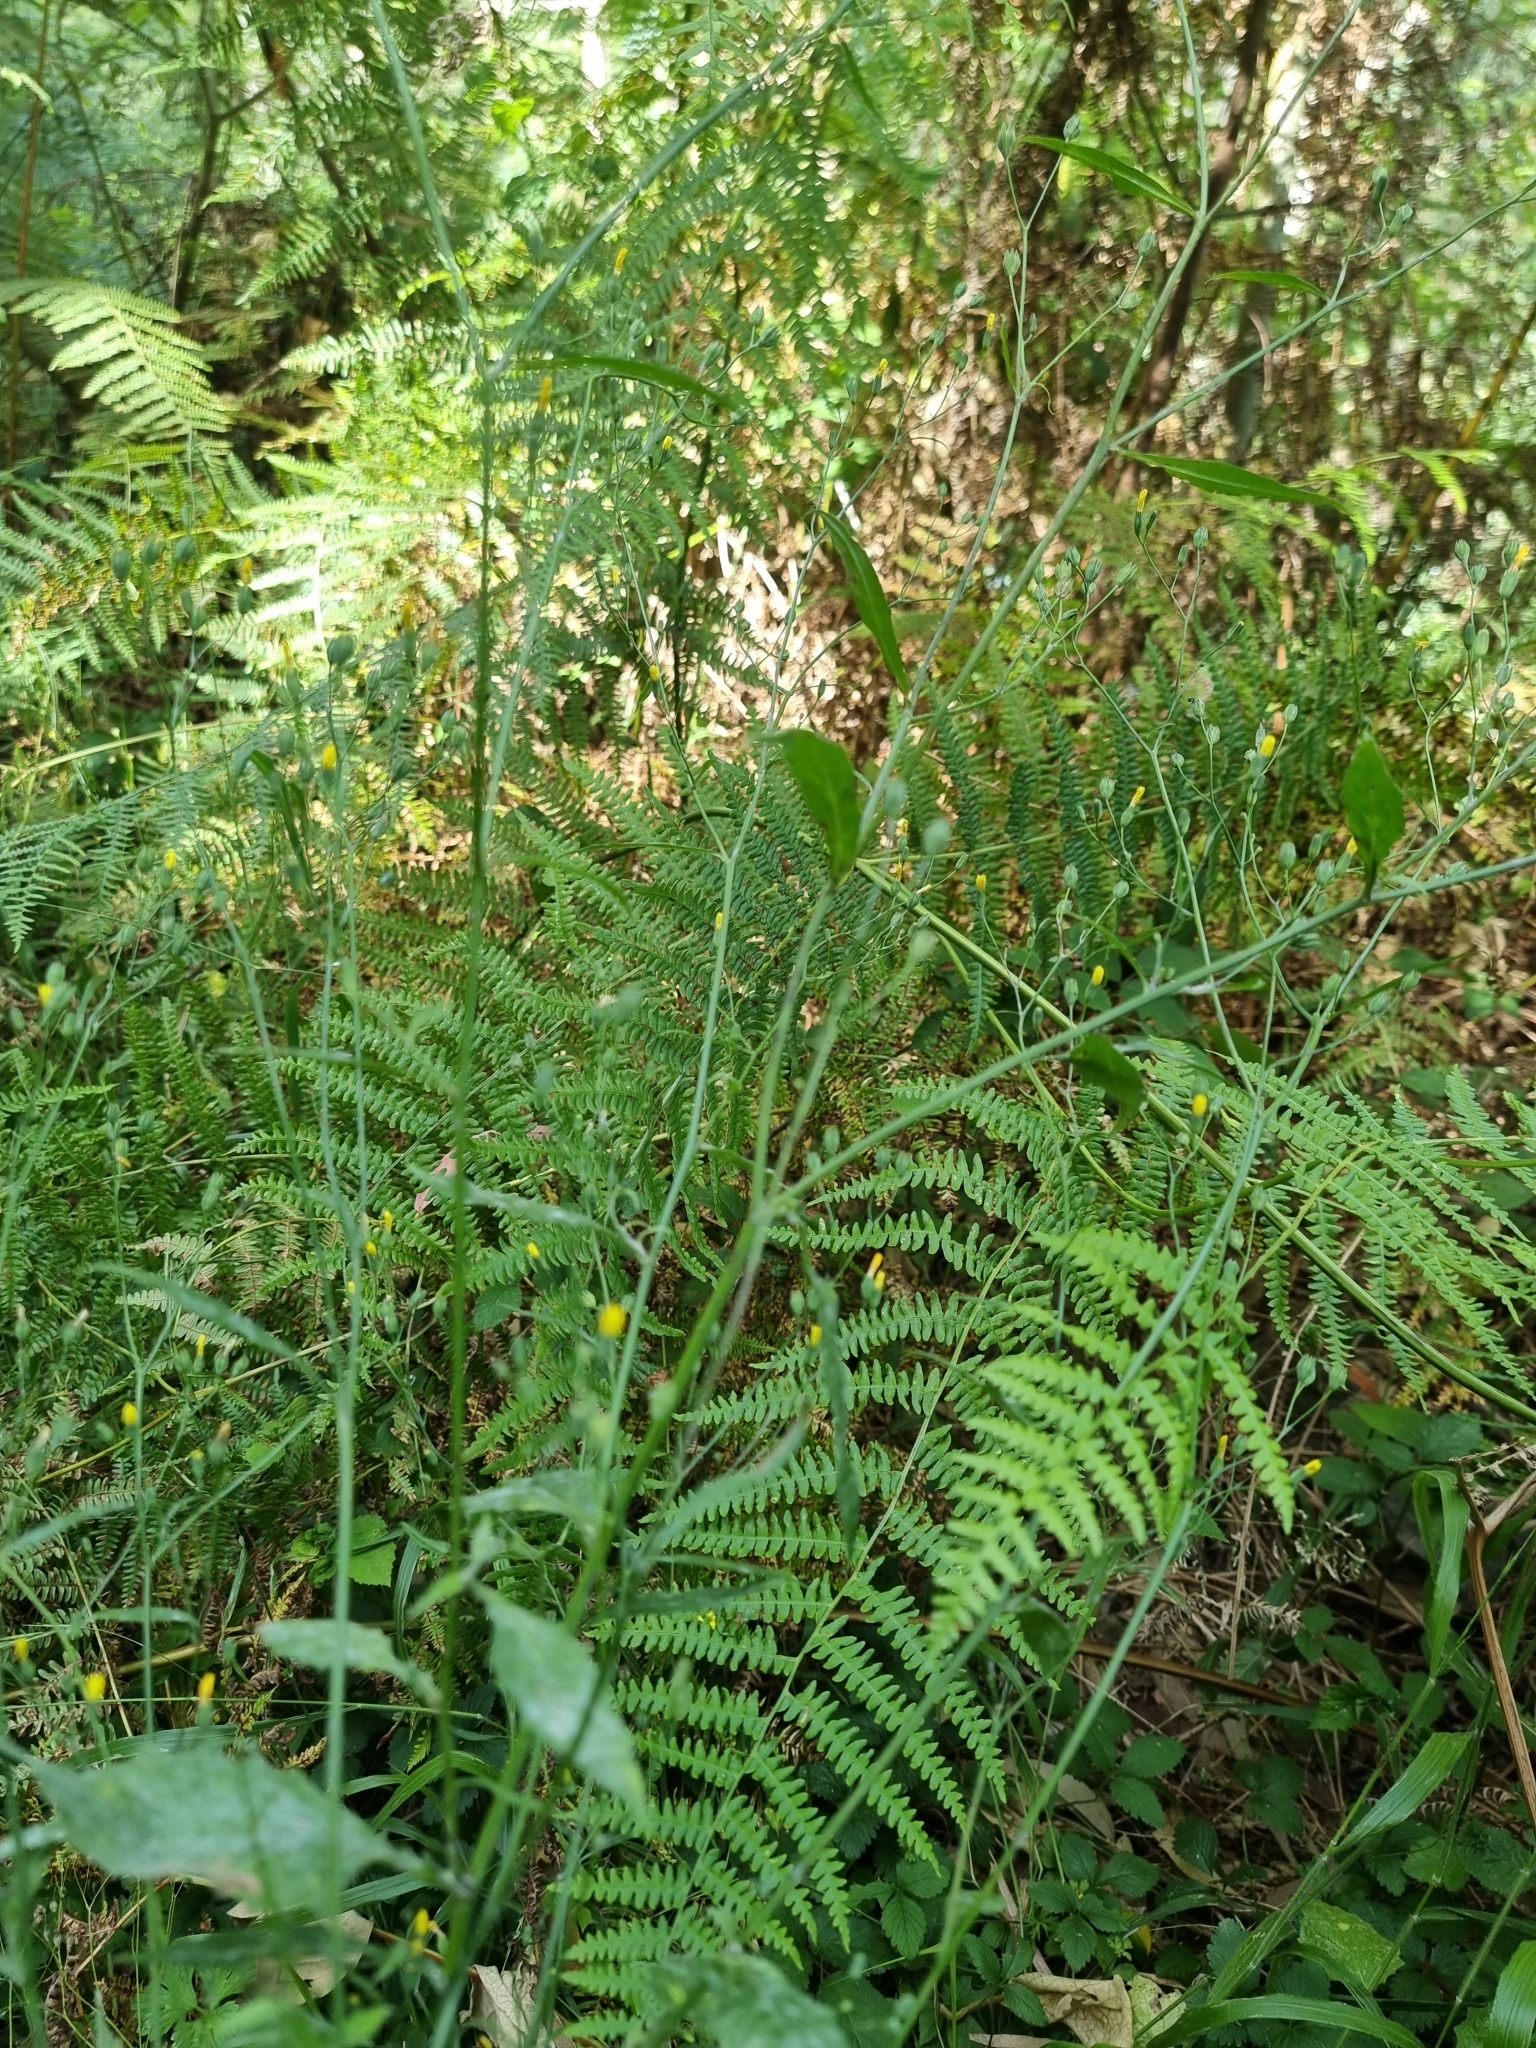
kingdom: Plantae
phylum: Tracheophyta
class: Magnoliopsida
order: Asterales
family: Asteraceae
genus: Lapsana
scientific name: Lapsana communis
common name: Nipplewort
